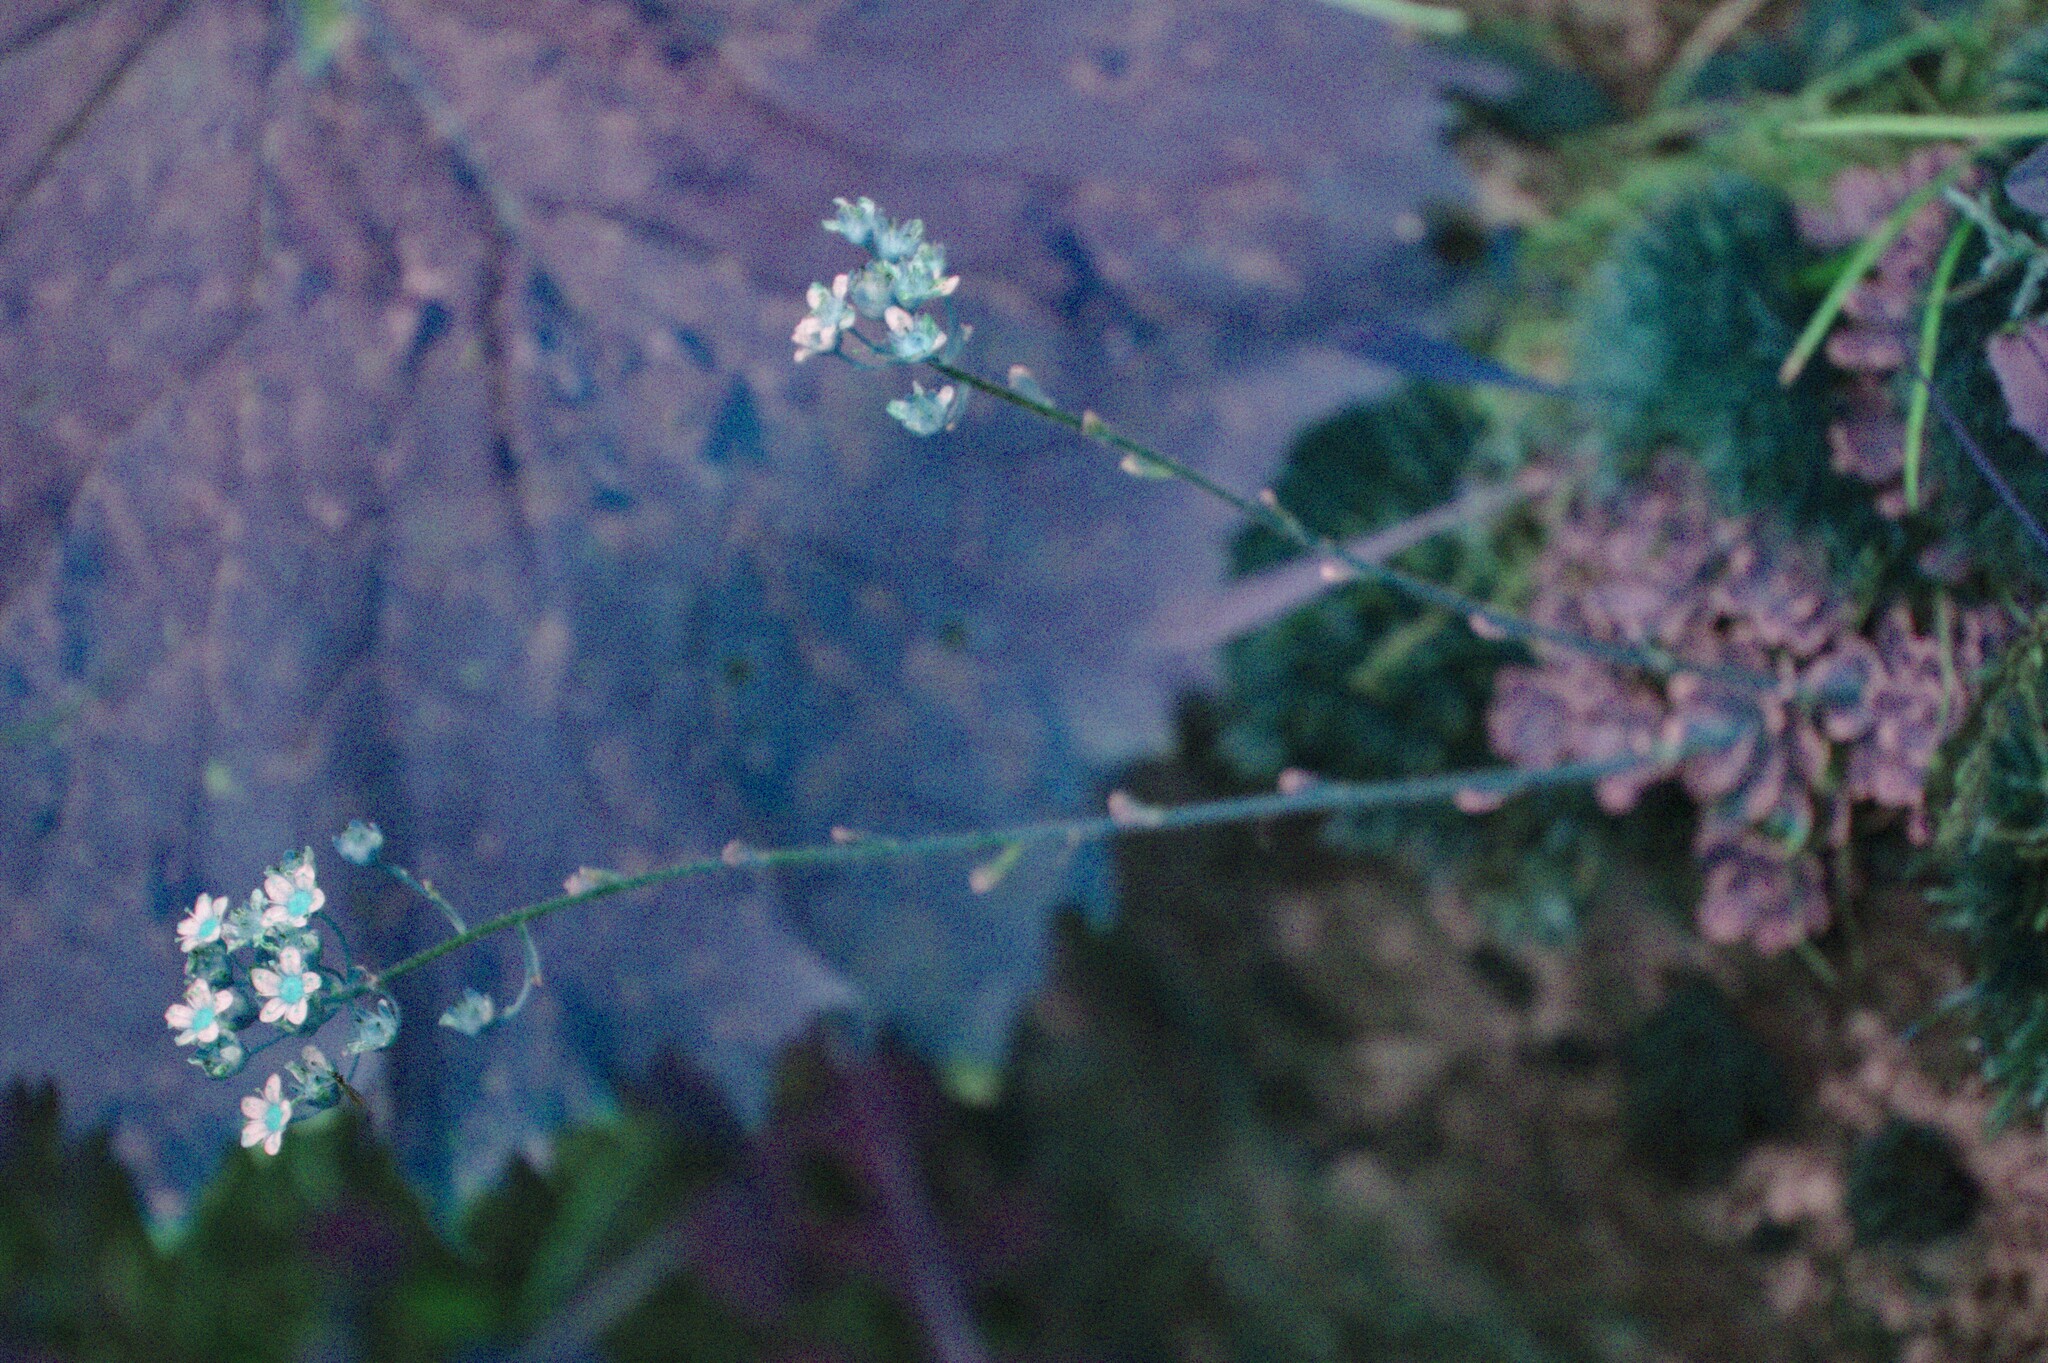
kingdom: Plantae
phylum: Tracheophyta
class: Magnoliopsida
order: Saxifragales
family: Saxifragaceae
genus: Saxifraga
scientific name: Saxifraga paniculata
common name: Livelong saxifrage
